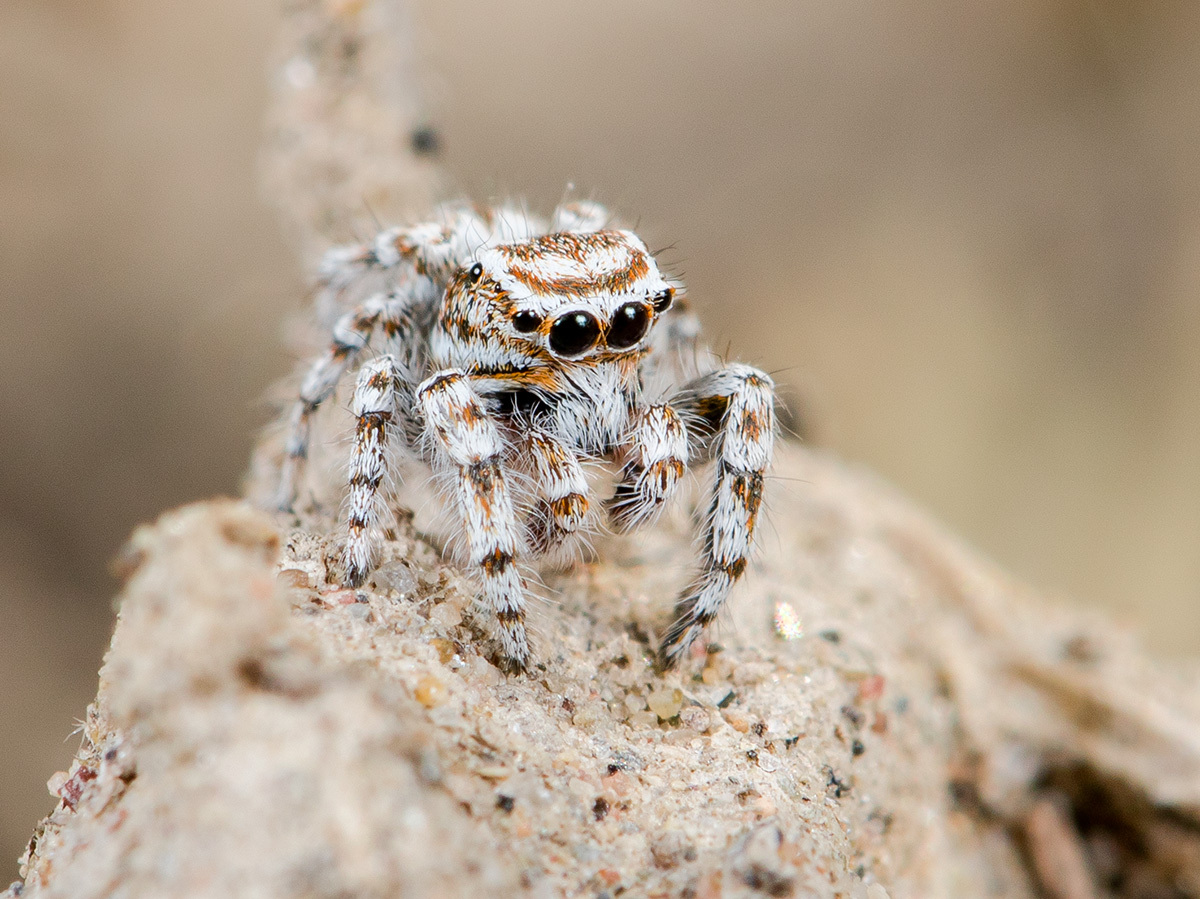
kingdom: Animalia
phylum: Arthropoda
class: Arachnida
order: Araneae
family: Salticidae
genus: Pseudomogrus
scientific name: Pseudomogrus dalaensis
